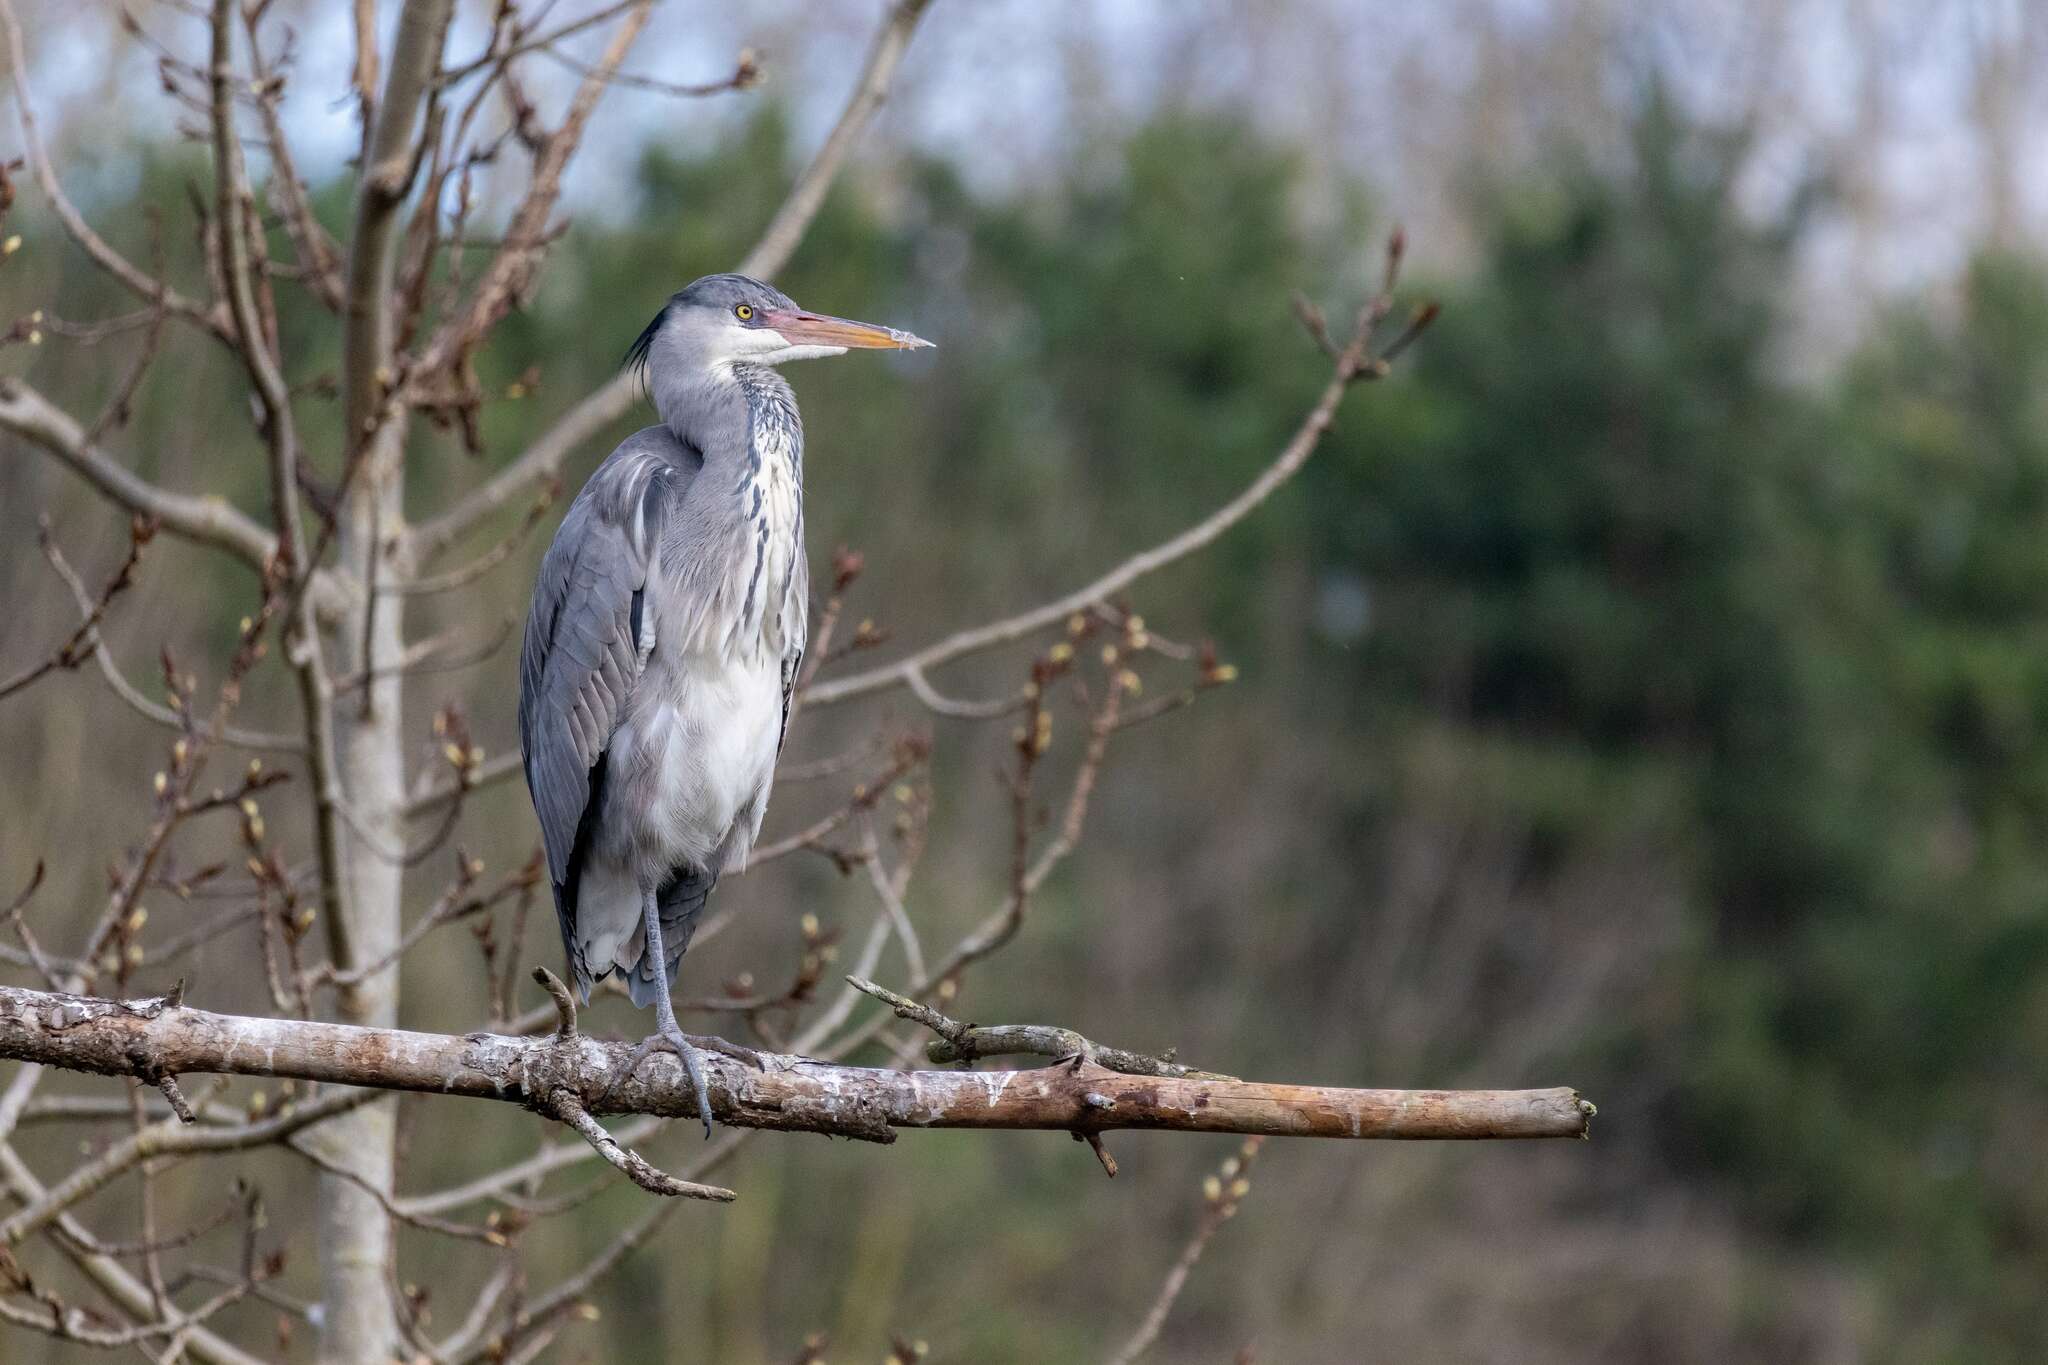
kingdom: Animalia
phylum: Chordata
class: Aves
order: Pelecaniformes
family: Ardeidae
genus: Ardea
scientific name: Ardea cinerea
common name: Grey heron
